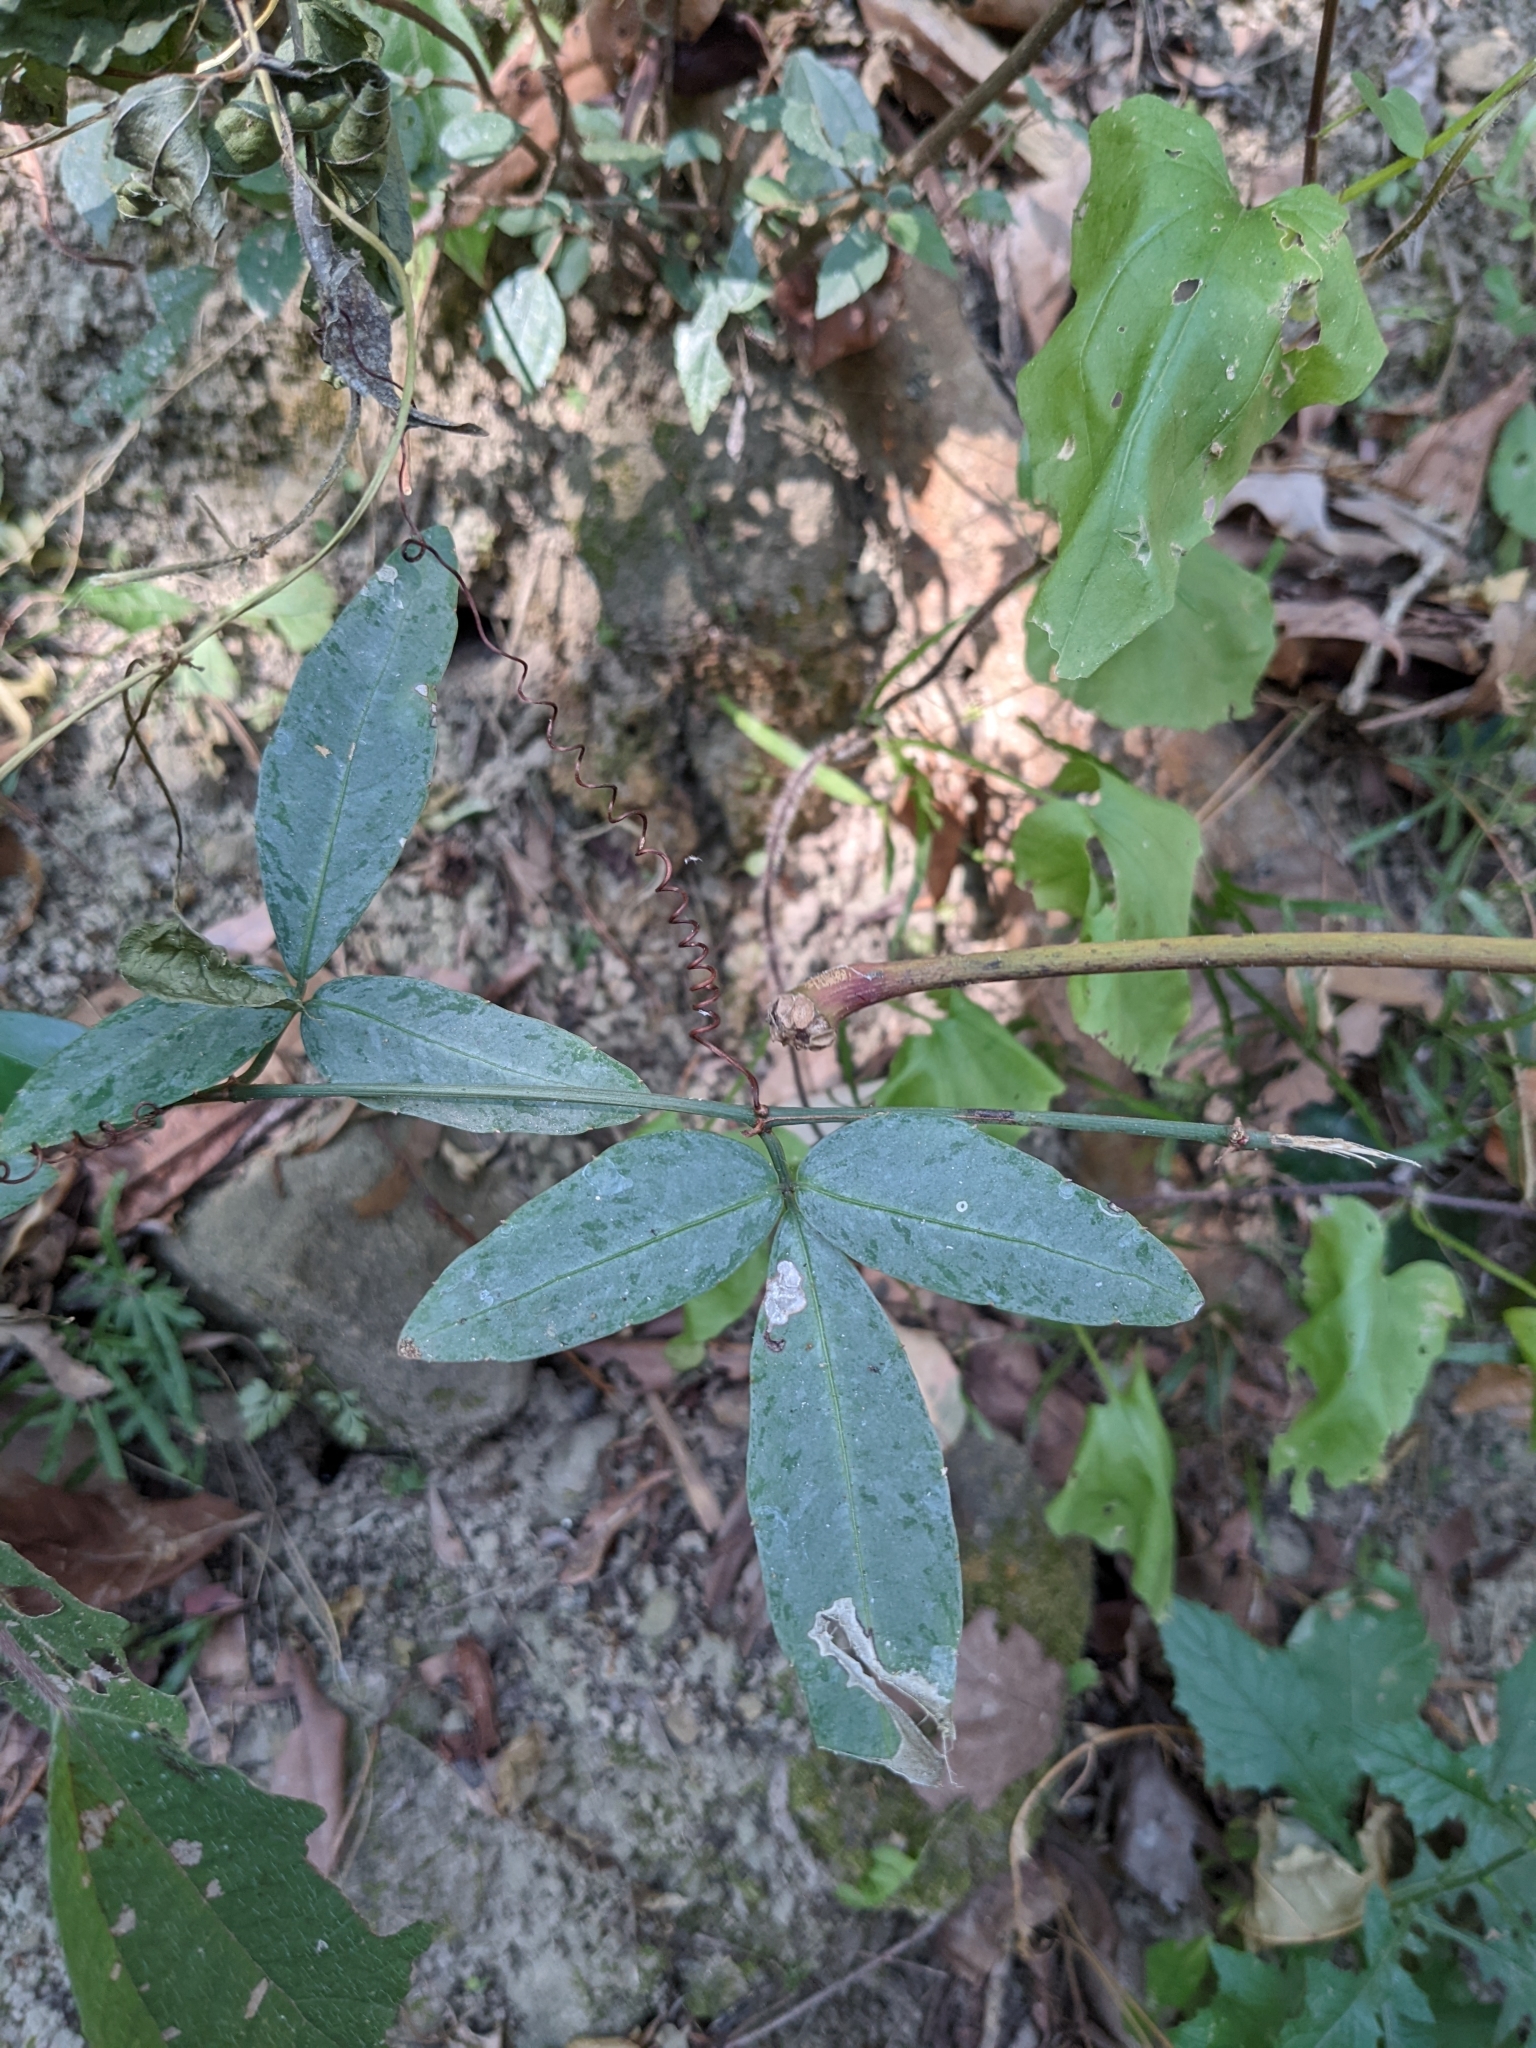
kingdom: Plantae
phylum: Tracheophyta
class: Magnoliopsida
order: Vitales
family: Vitaceae
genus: Tetrastigma
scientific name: Tetrastigma formosanum
